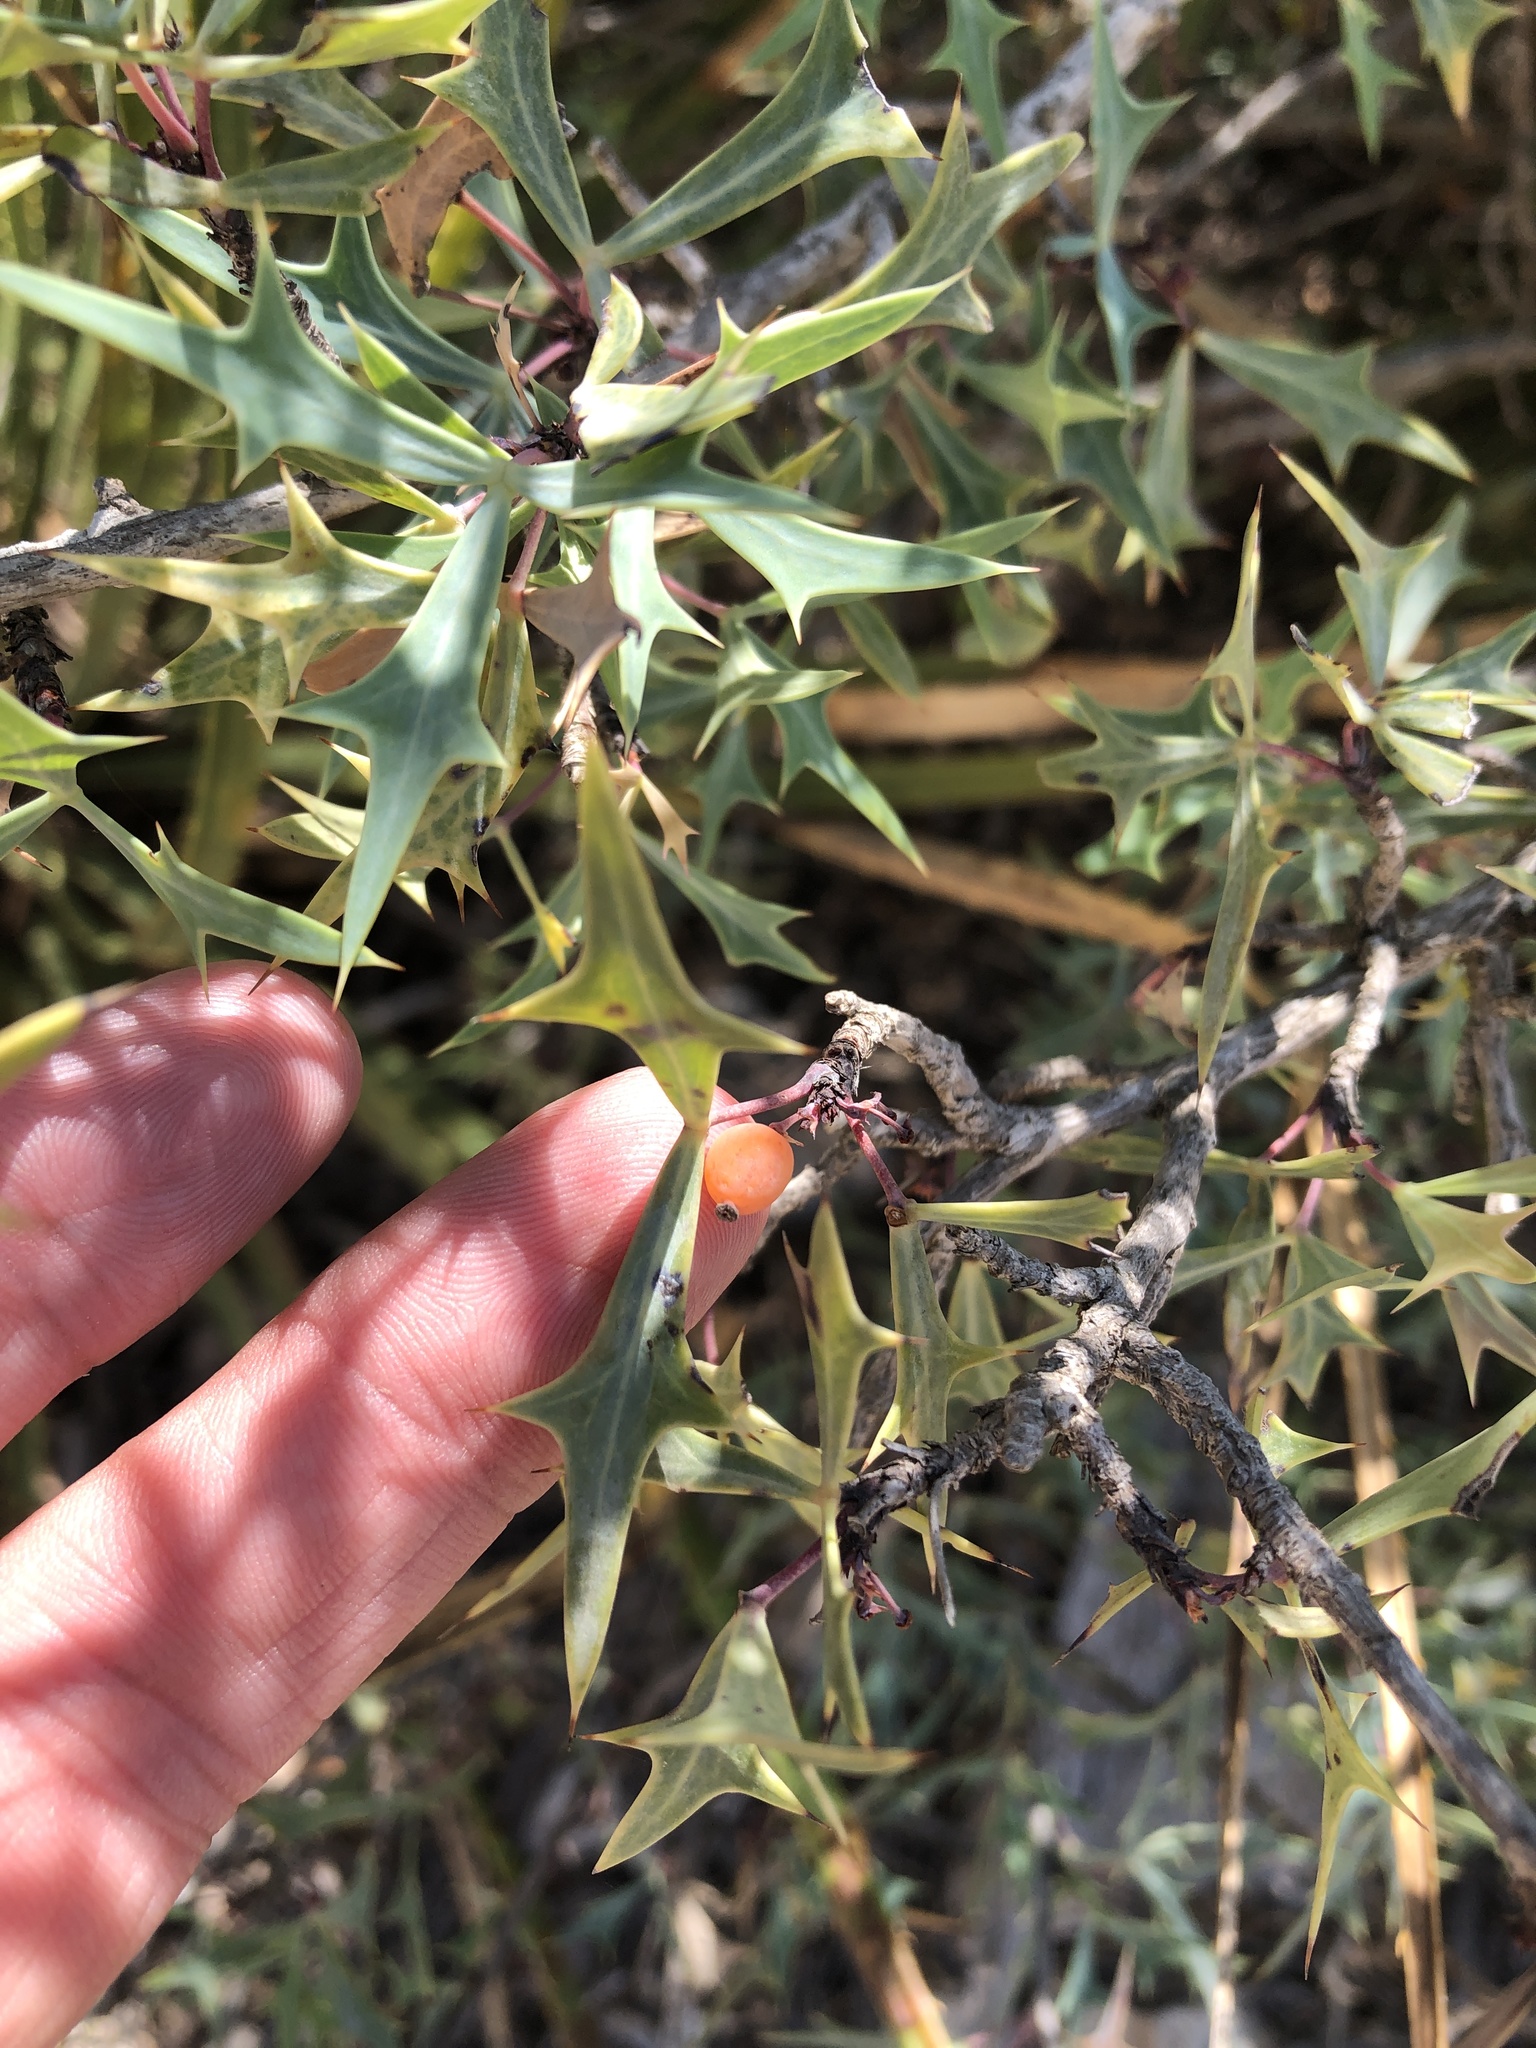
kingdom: Plantae
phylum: Tracheophyta
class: Magnoliopsida
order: Ranunculales
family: Berberidaceae
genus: Alloberberis
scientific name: Alloberberis trifoliolata
